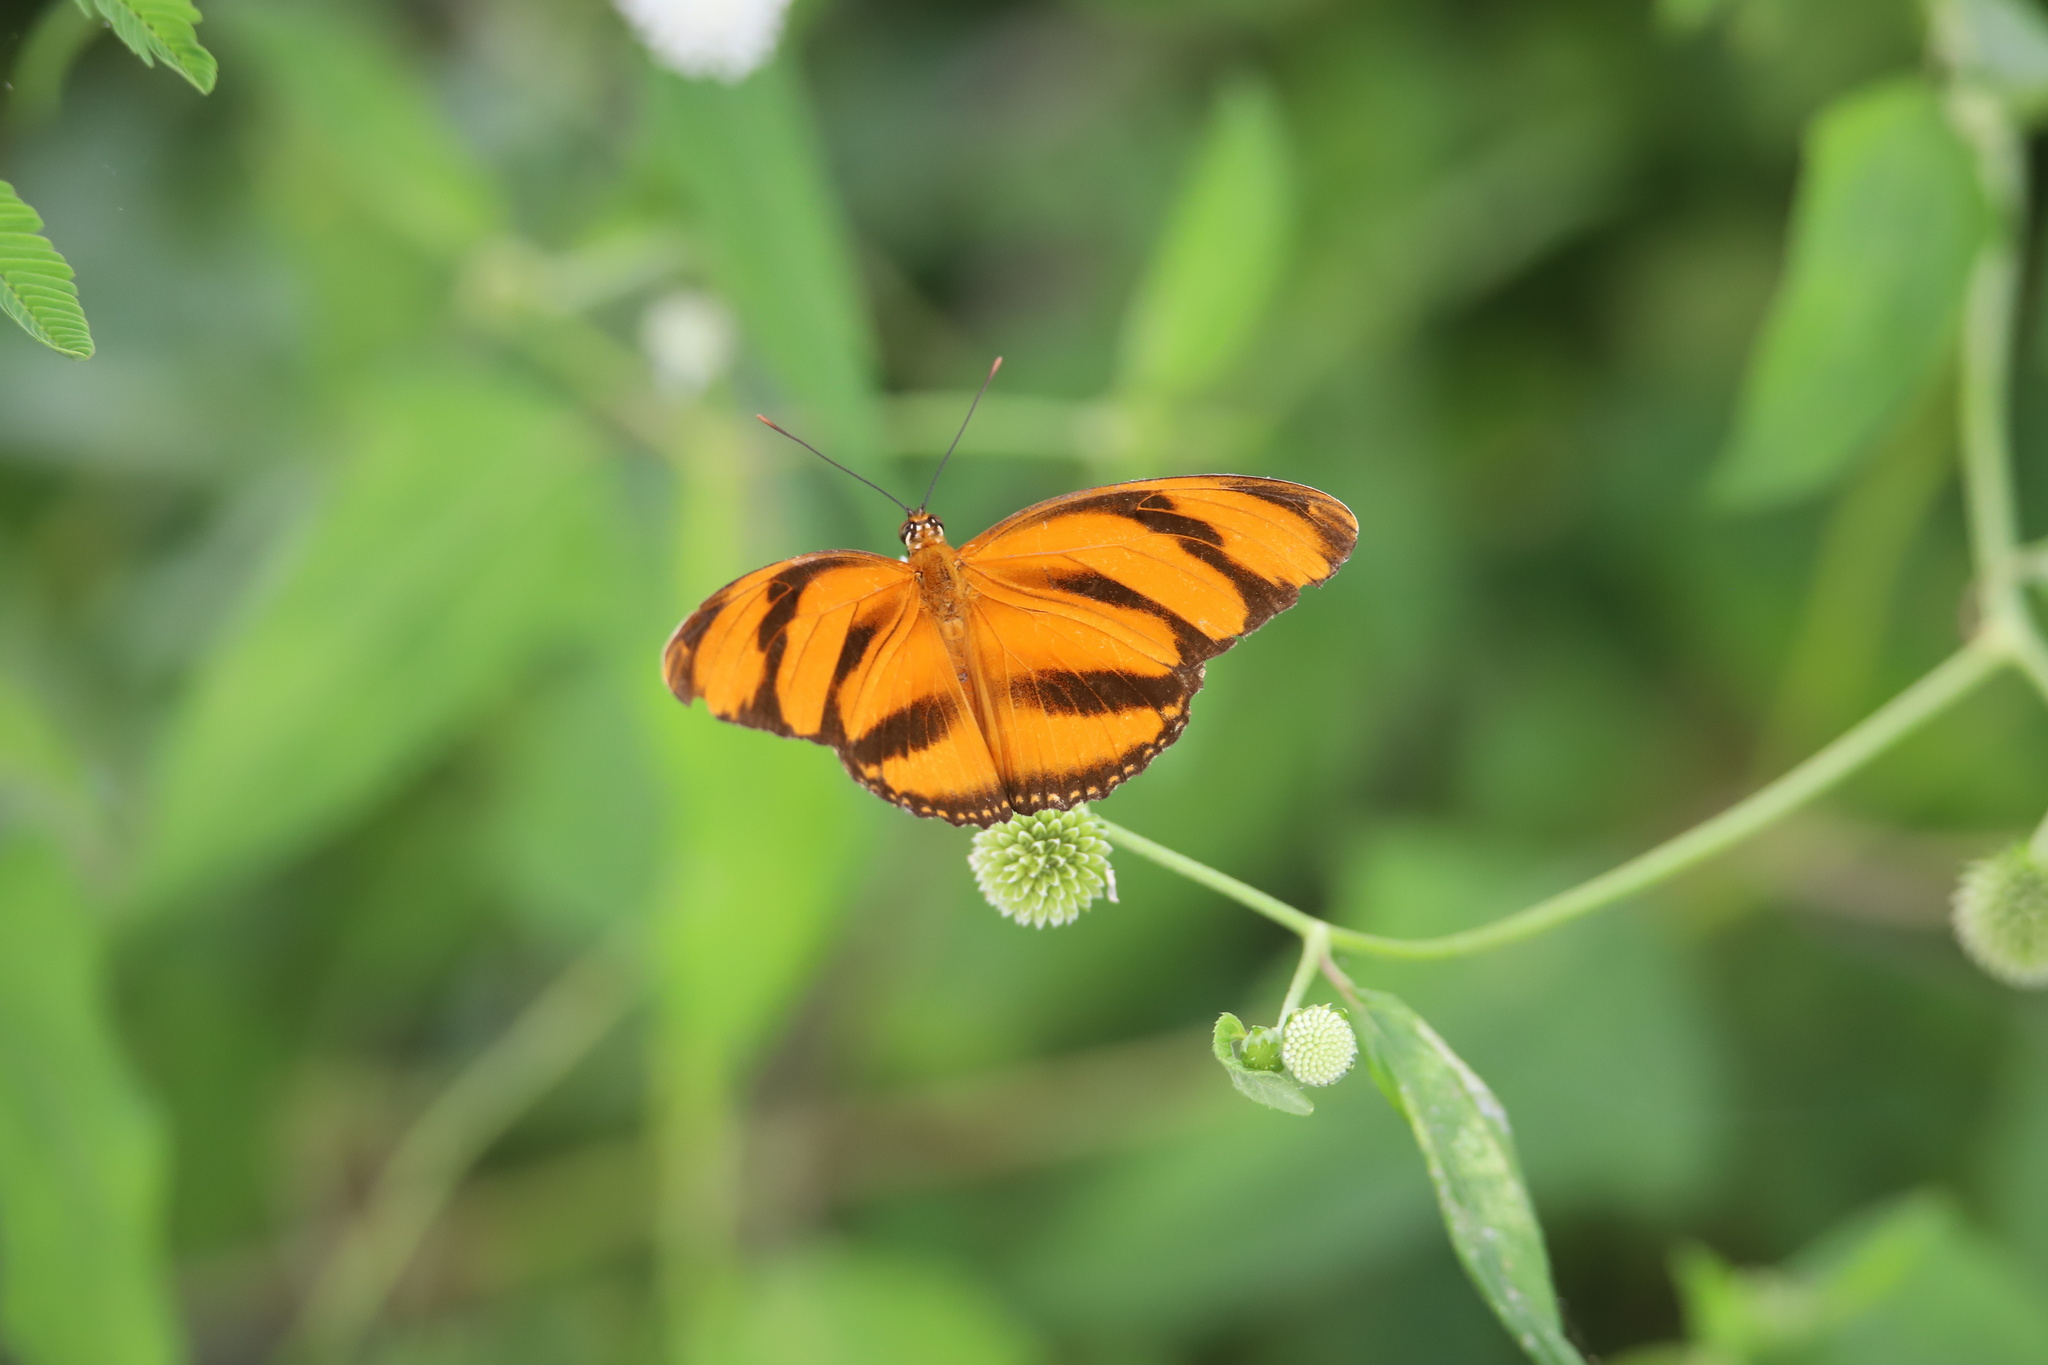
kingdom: Animalia
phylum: Arthropoda
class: Insecta
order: Lepidoptera
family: Nymphalidae
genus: Dryadula
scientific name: Dryadula phaetusa
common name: Banded orange heliconian
